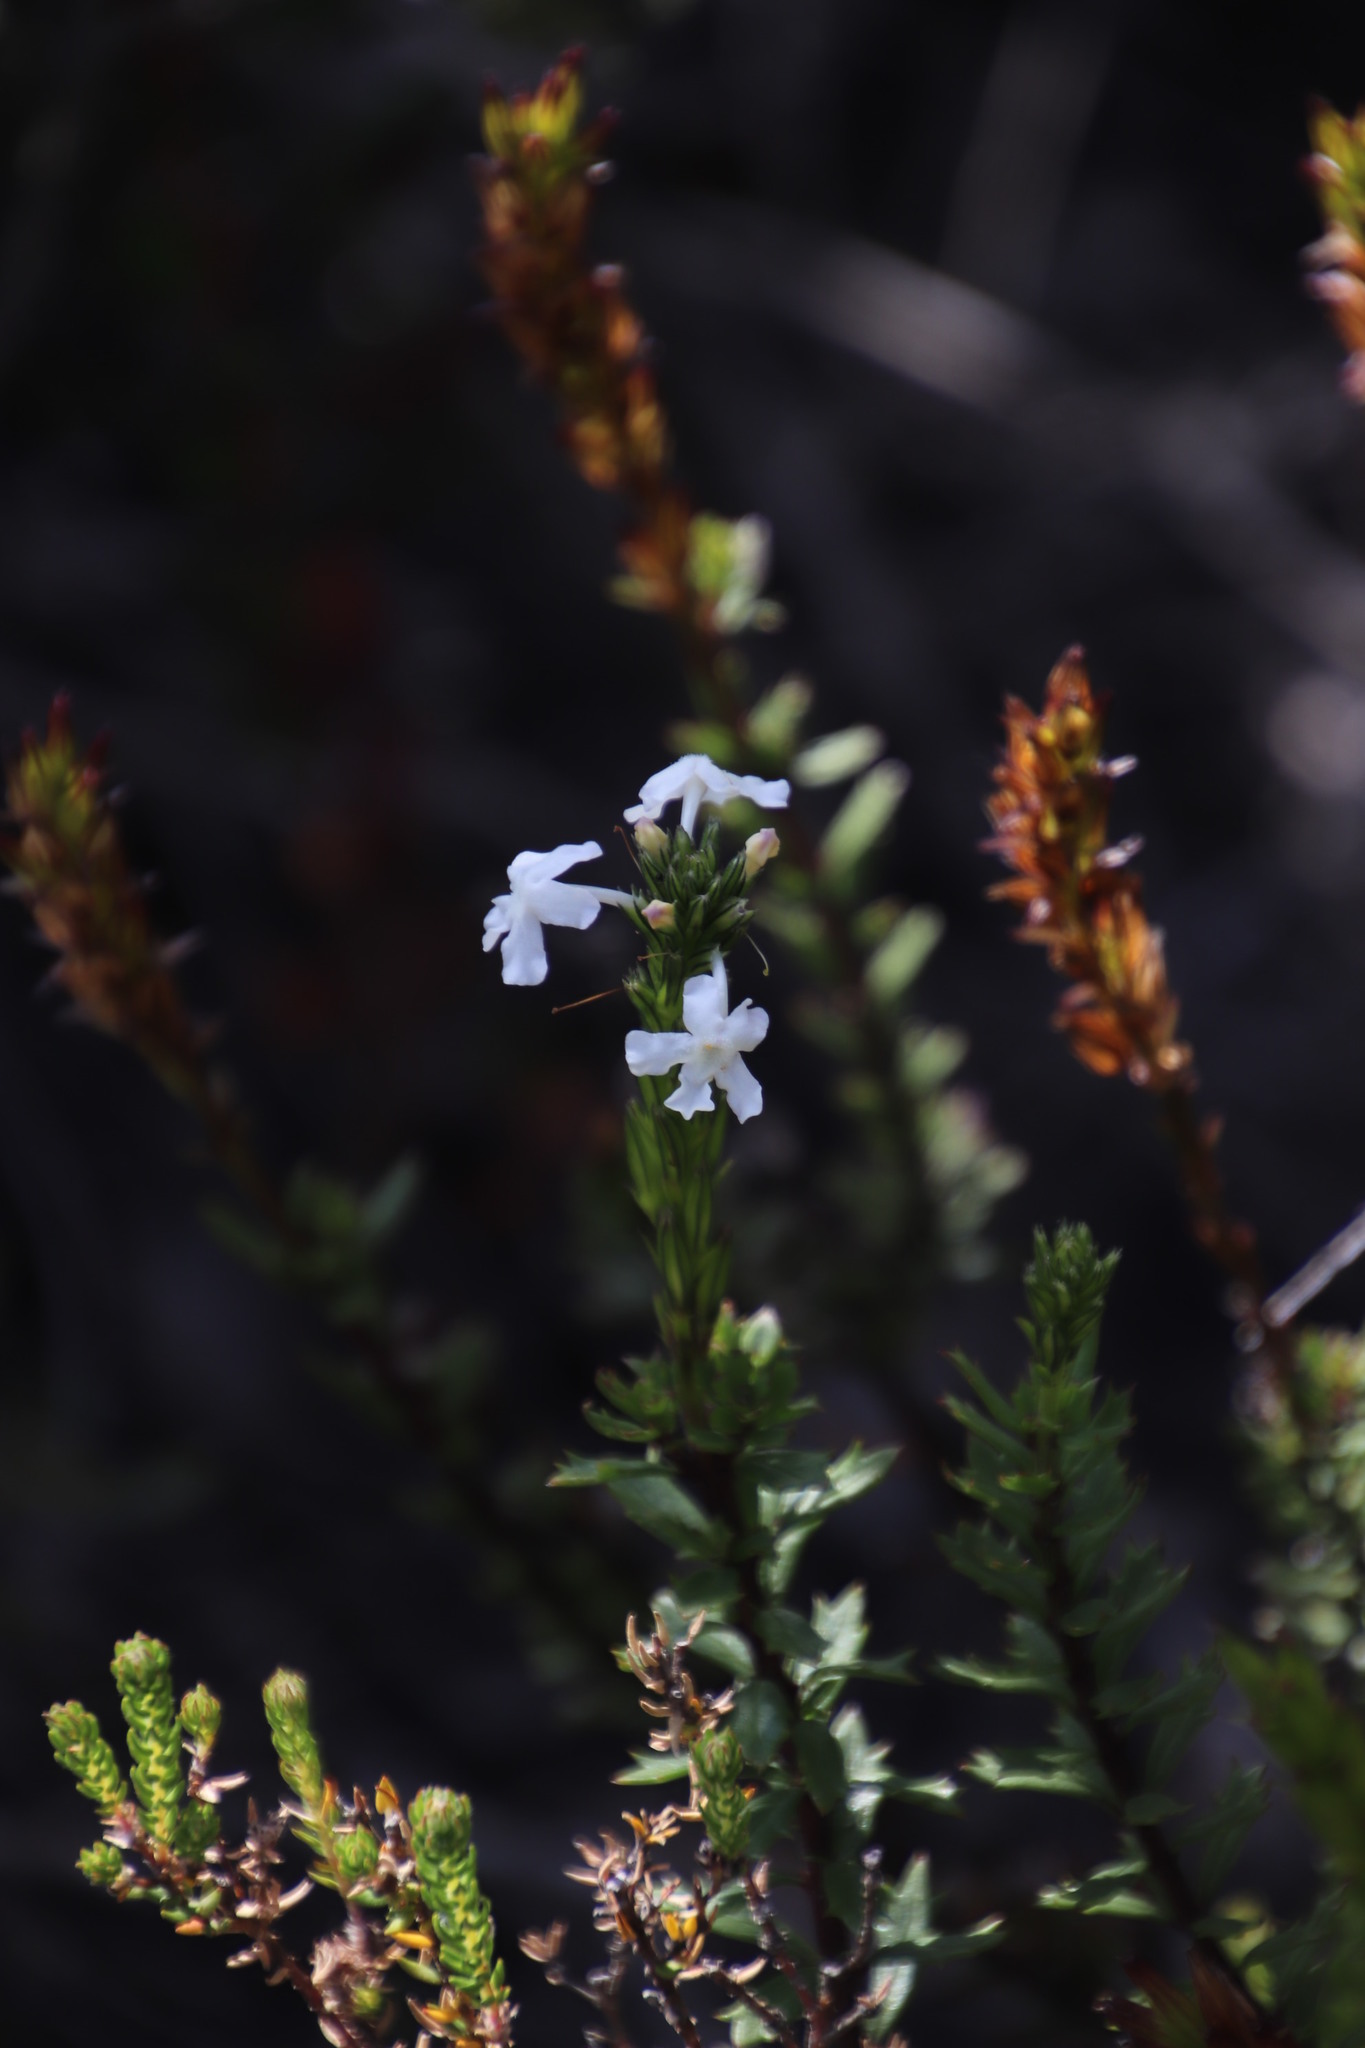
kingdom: Plantae
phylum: Tracheophyta
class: Magnoliopsida
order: Lamiales
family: Verbenaceae
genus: Chascanum
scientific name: Chascanum cernuum
